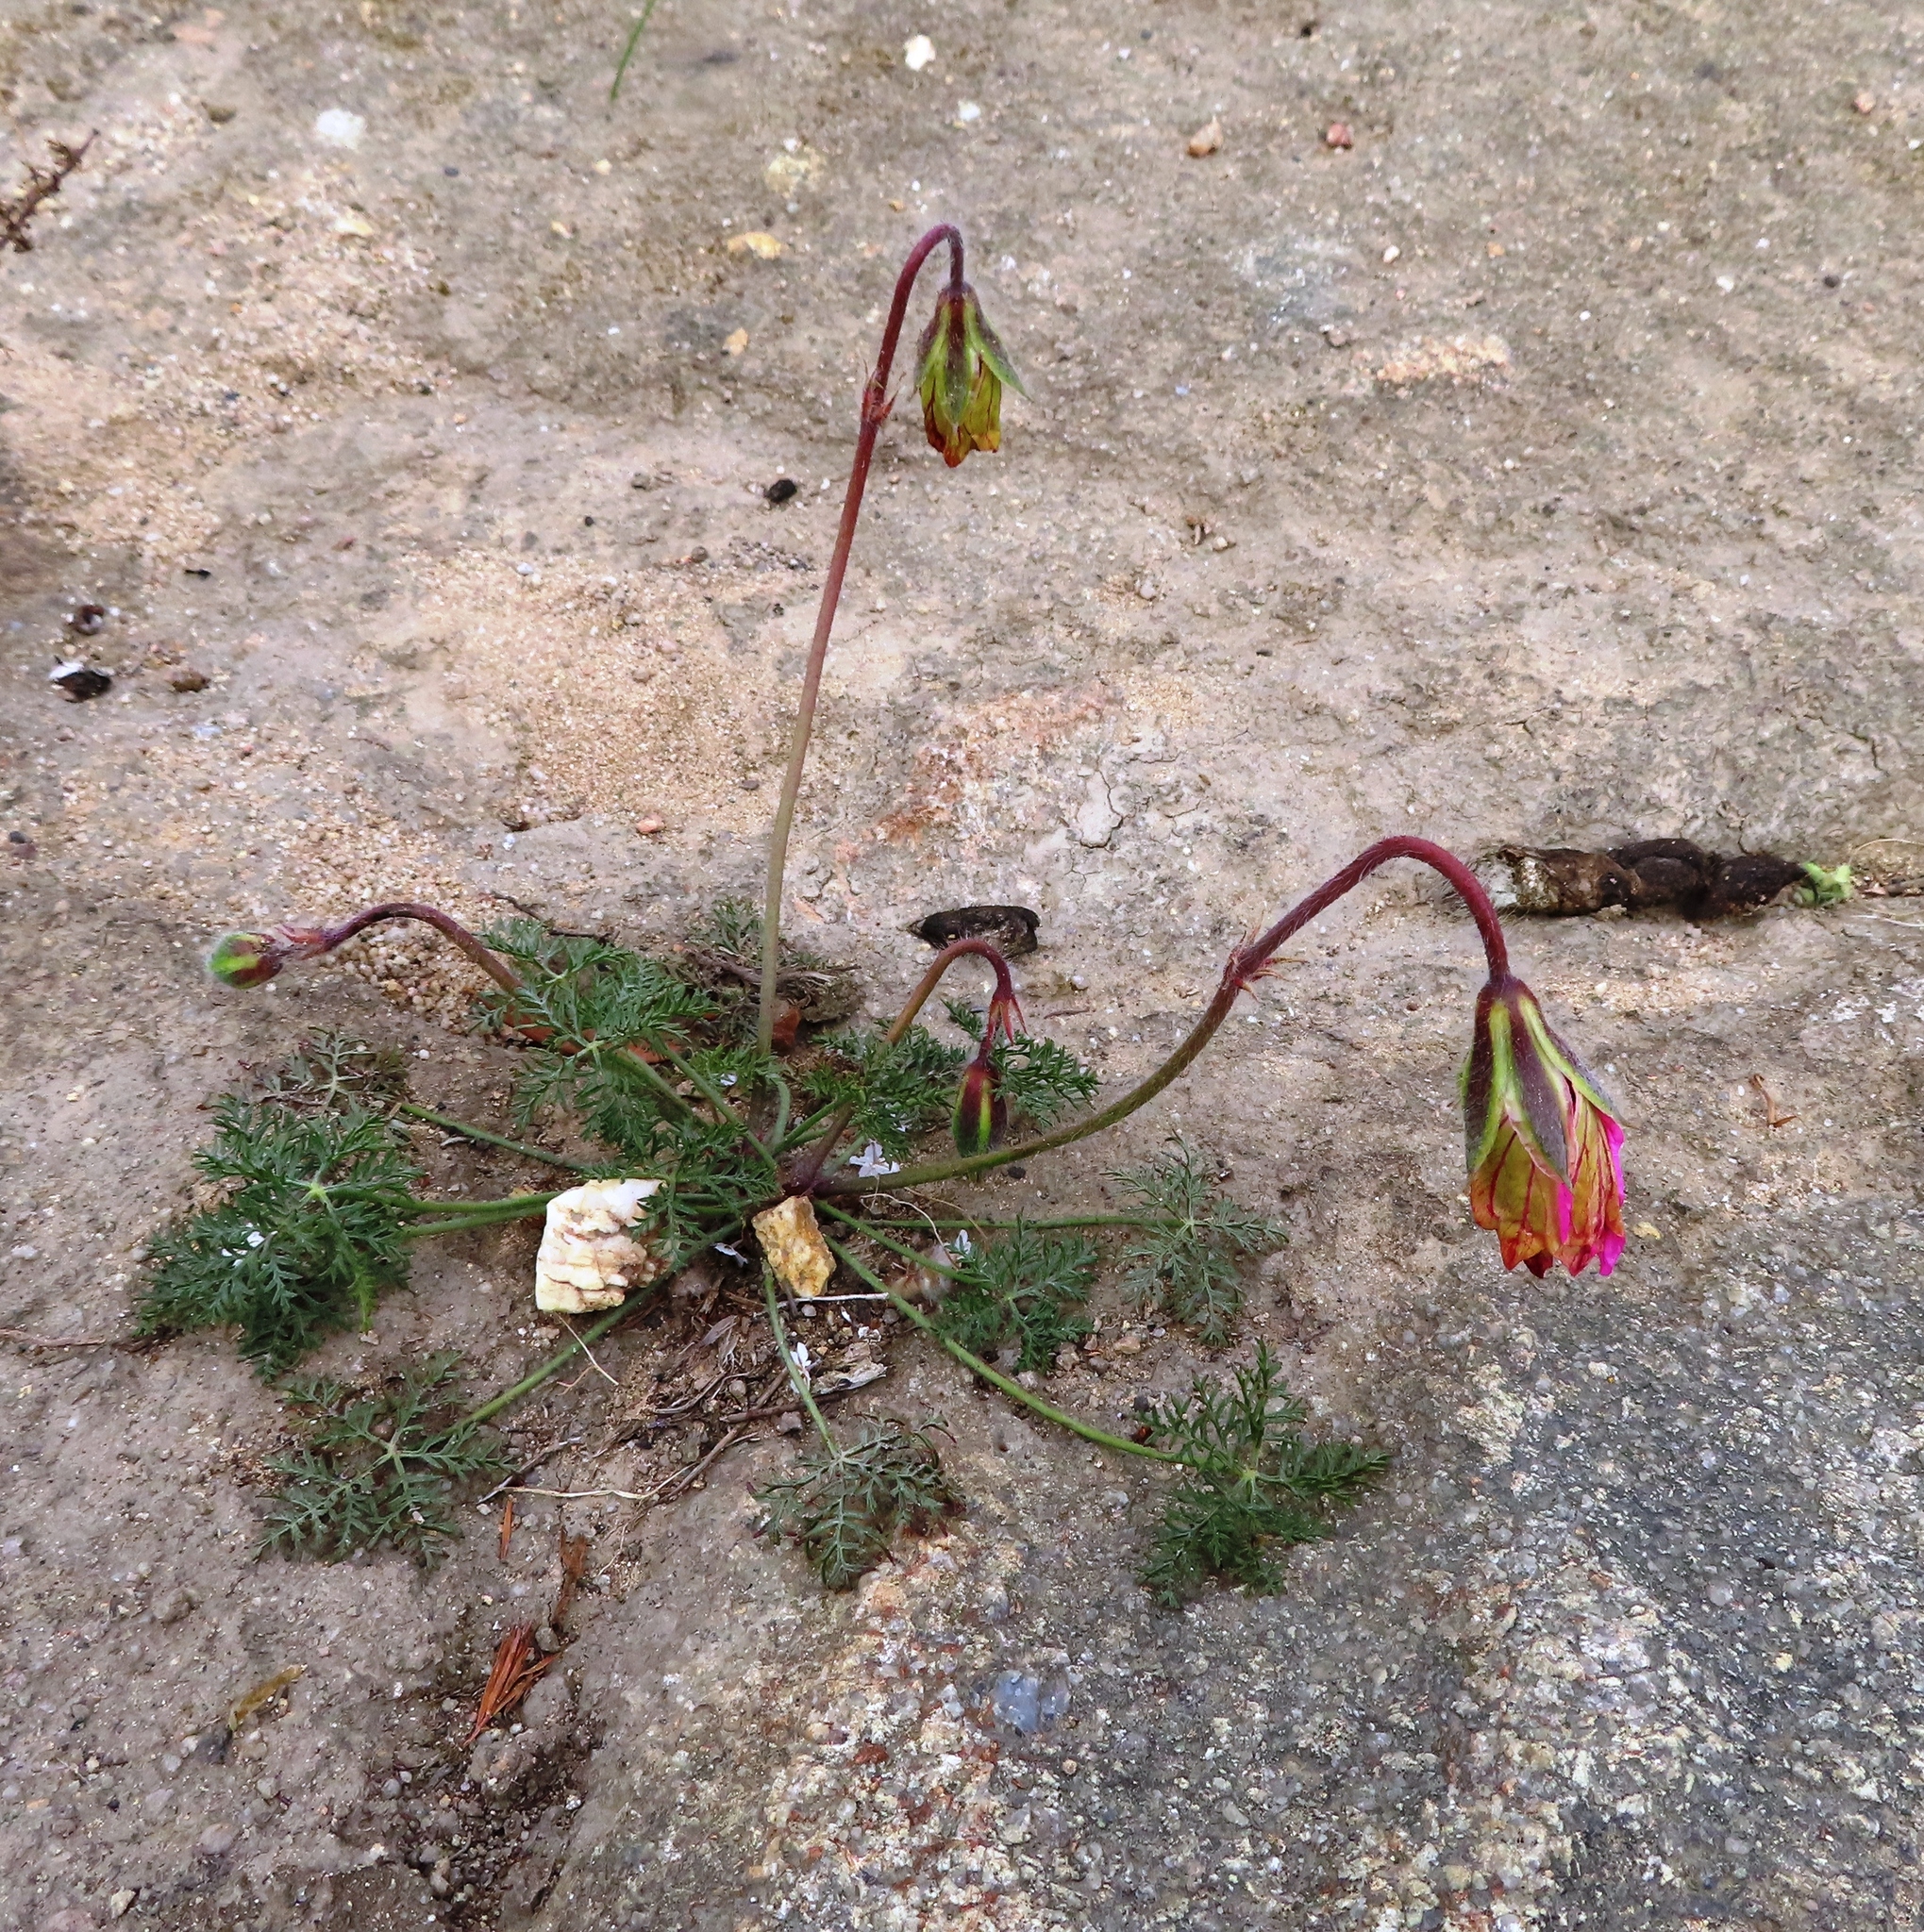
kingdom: Plantae
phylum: Tracheophyta
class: Magnoliopsida
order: Geraniales
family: Geraniaceae
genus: Monsonia
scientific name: Monsonia speciosa
